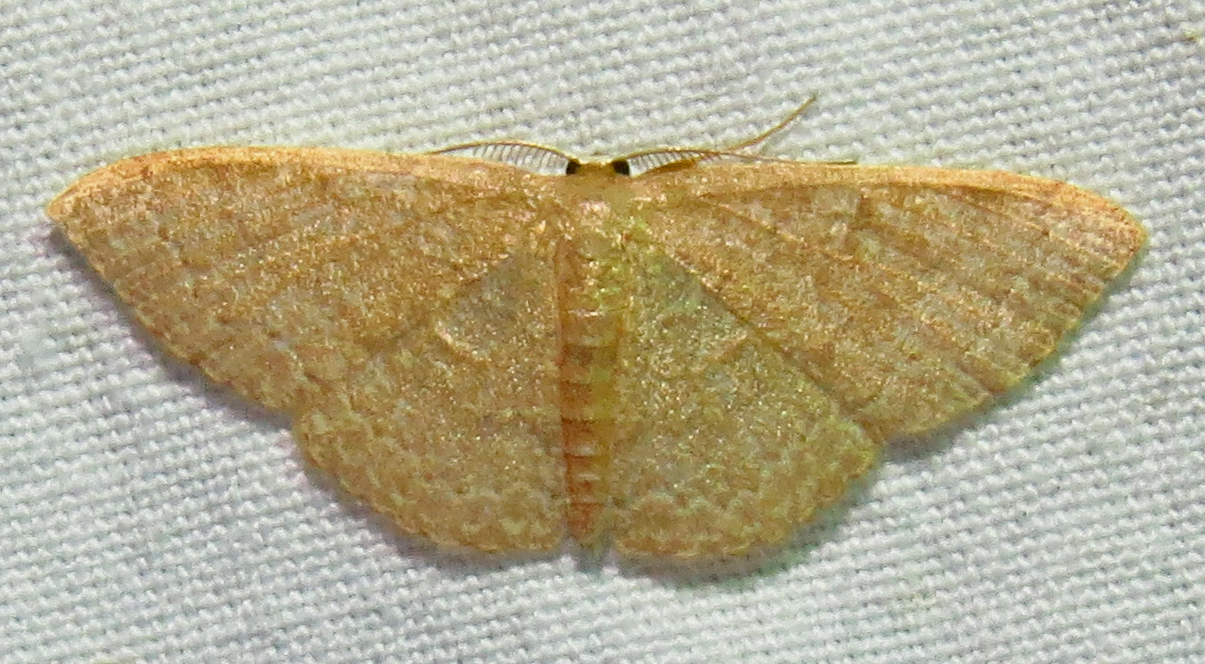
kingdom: Animalia
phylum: Arthropoda
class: Insecta
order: Lepidoptera
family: Geometridae
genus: Pleuroprucha
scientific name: Pleuroprucha insulsaria
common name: Common tan wave
